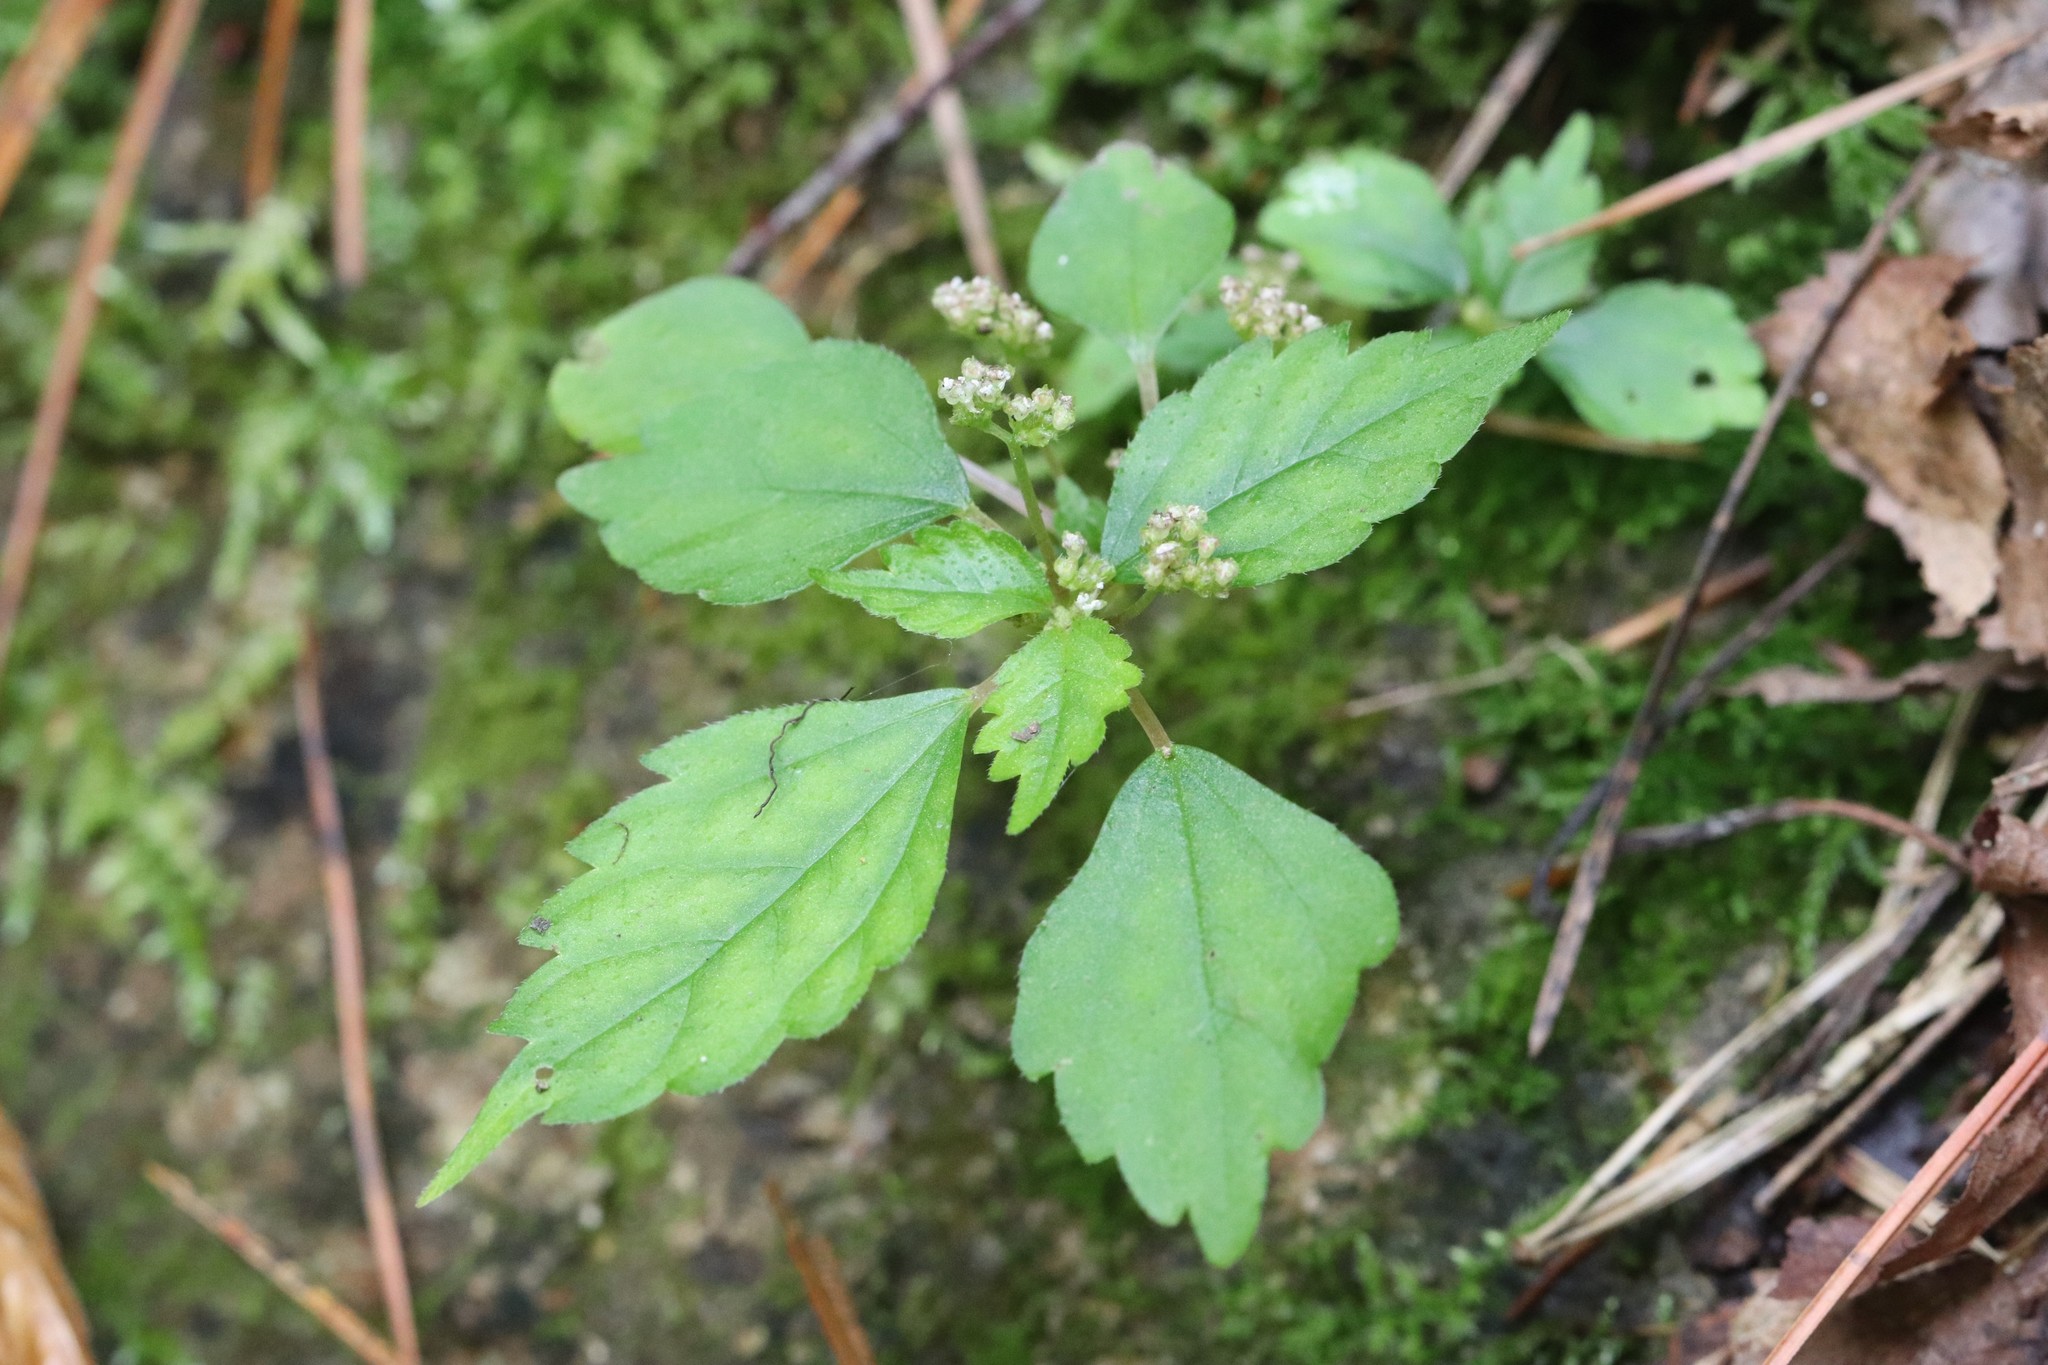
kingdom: Plantae
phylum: Tracheophyta
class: Magnoliopsida
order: Rosales
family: Urticaceae
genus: Achudemia
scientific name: Achudemia japonica
